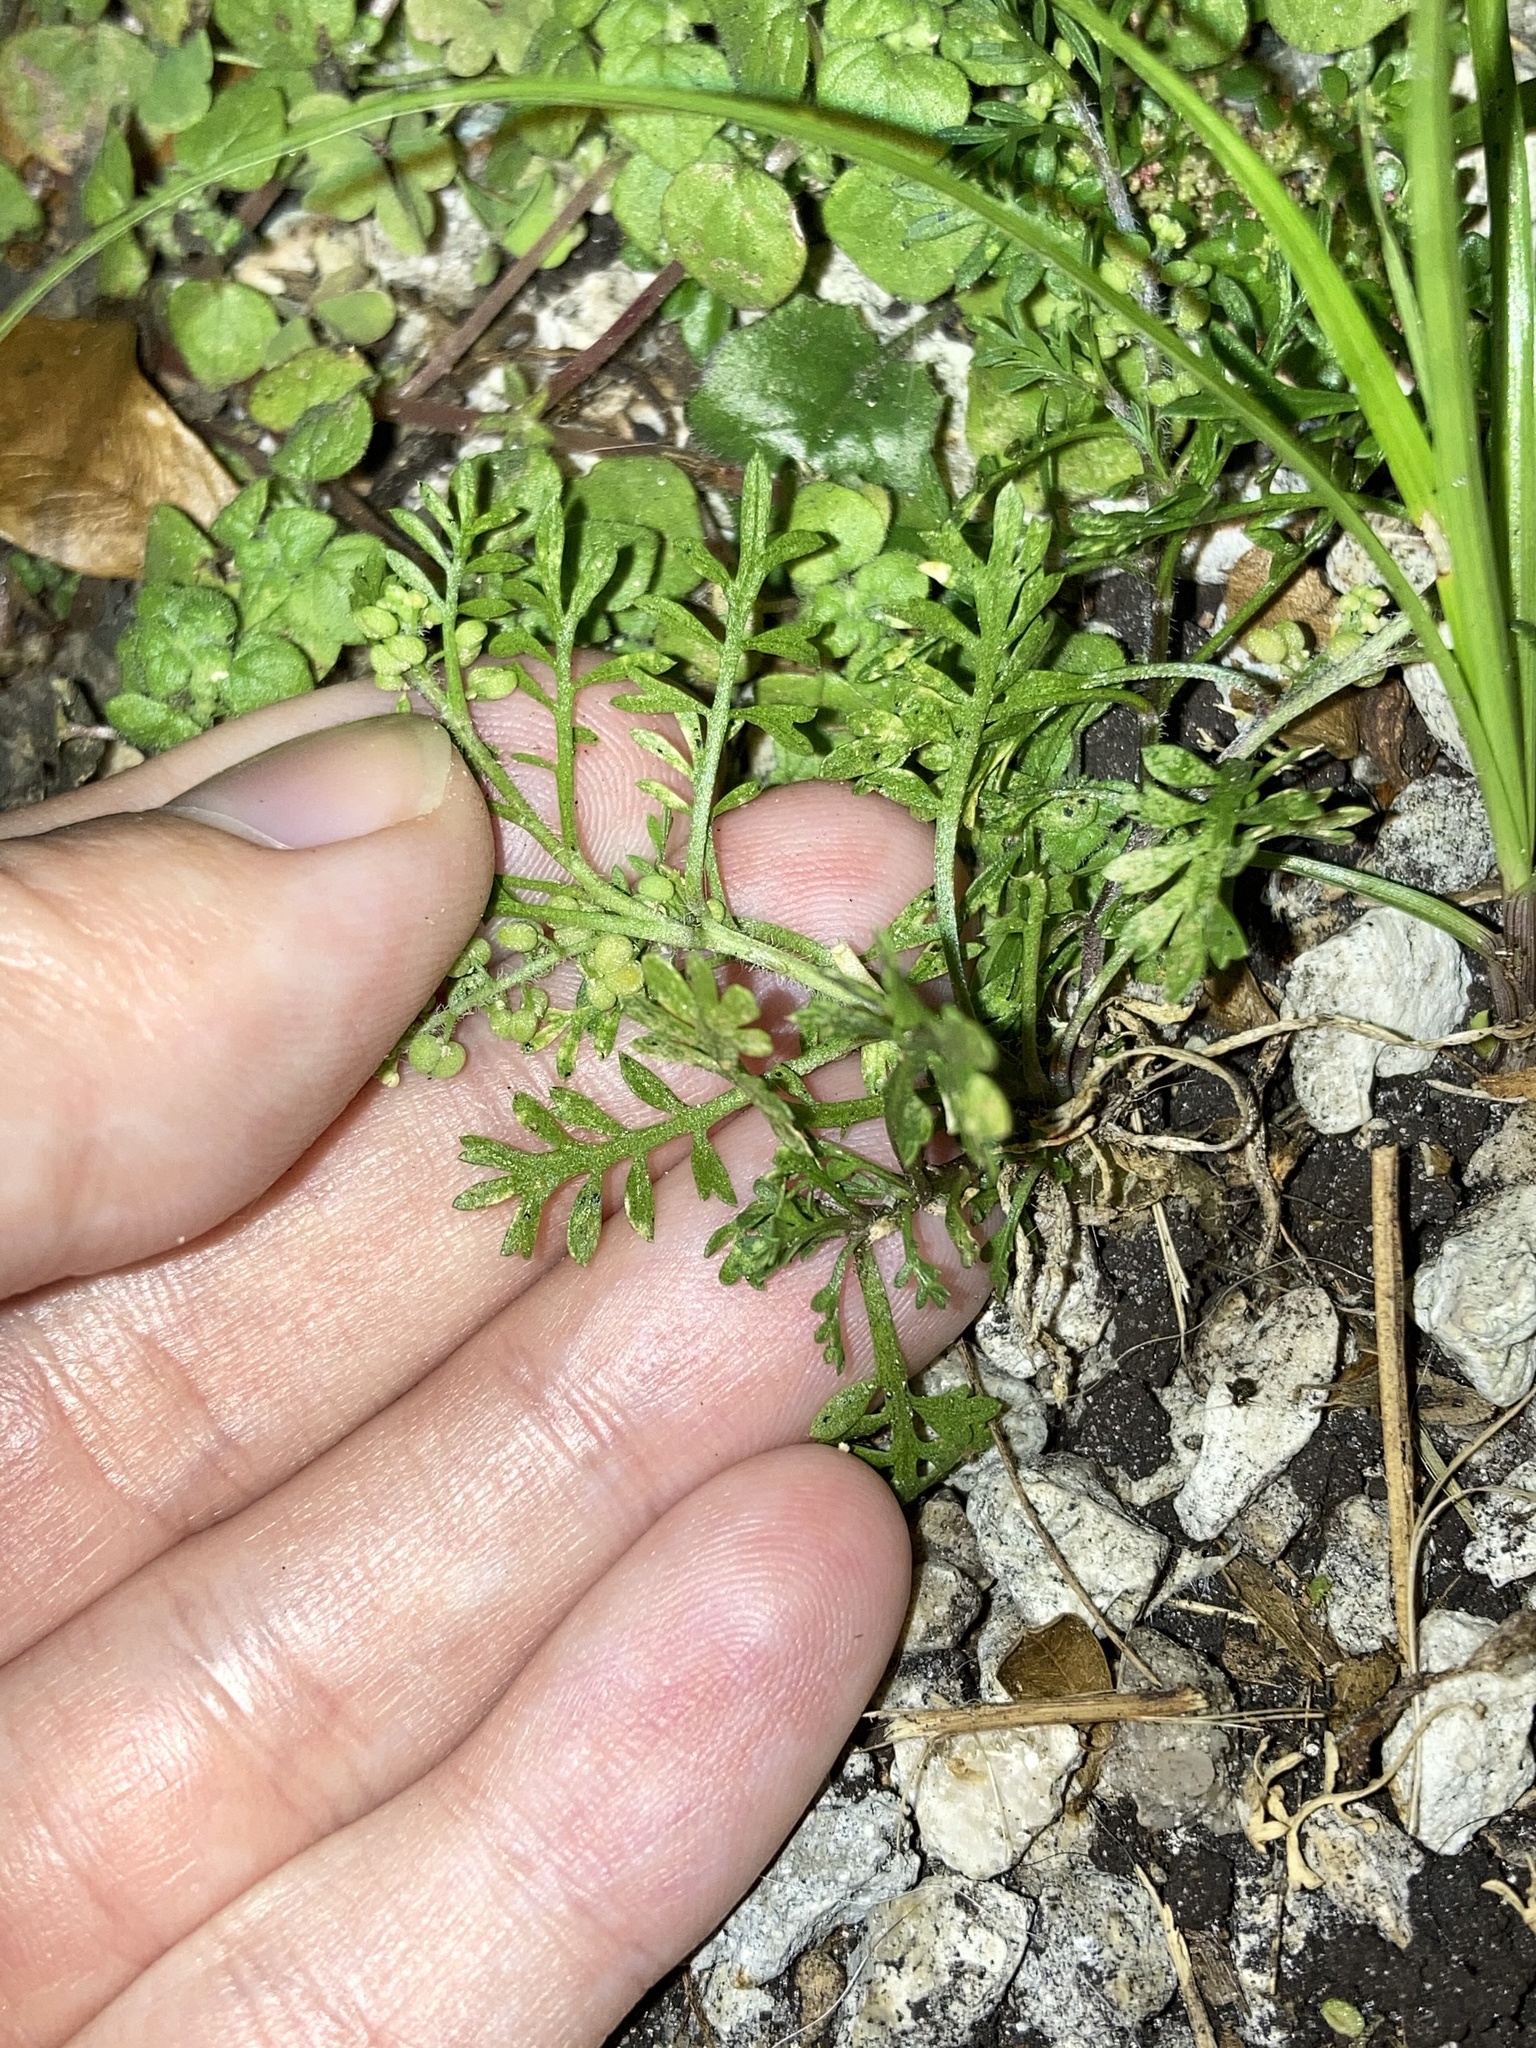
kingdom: Plantae
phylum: Tracheophyta
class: Magnoliopsida
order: Brassicales
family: Brassicaceae
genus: Lepidium
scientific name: Lepidium didymum
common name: Lesser swinecress
